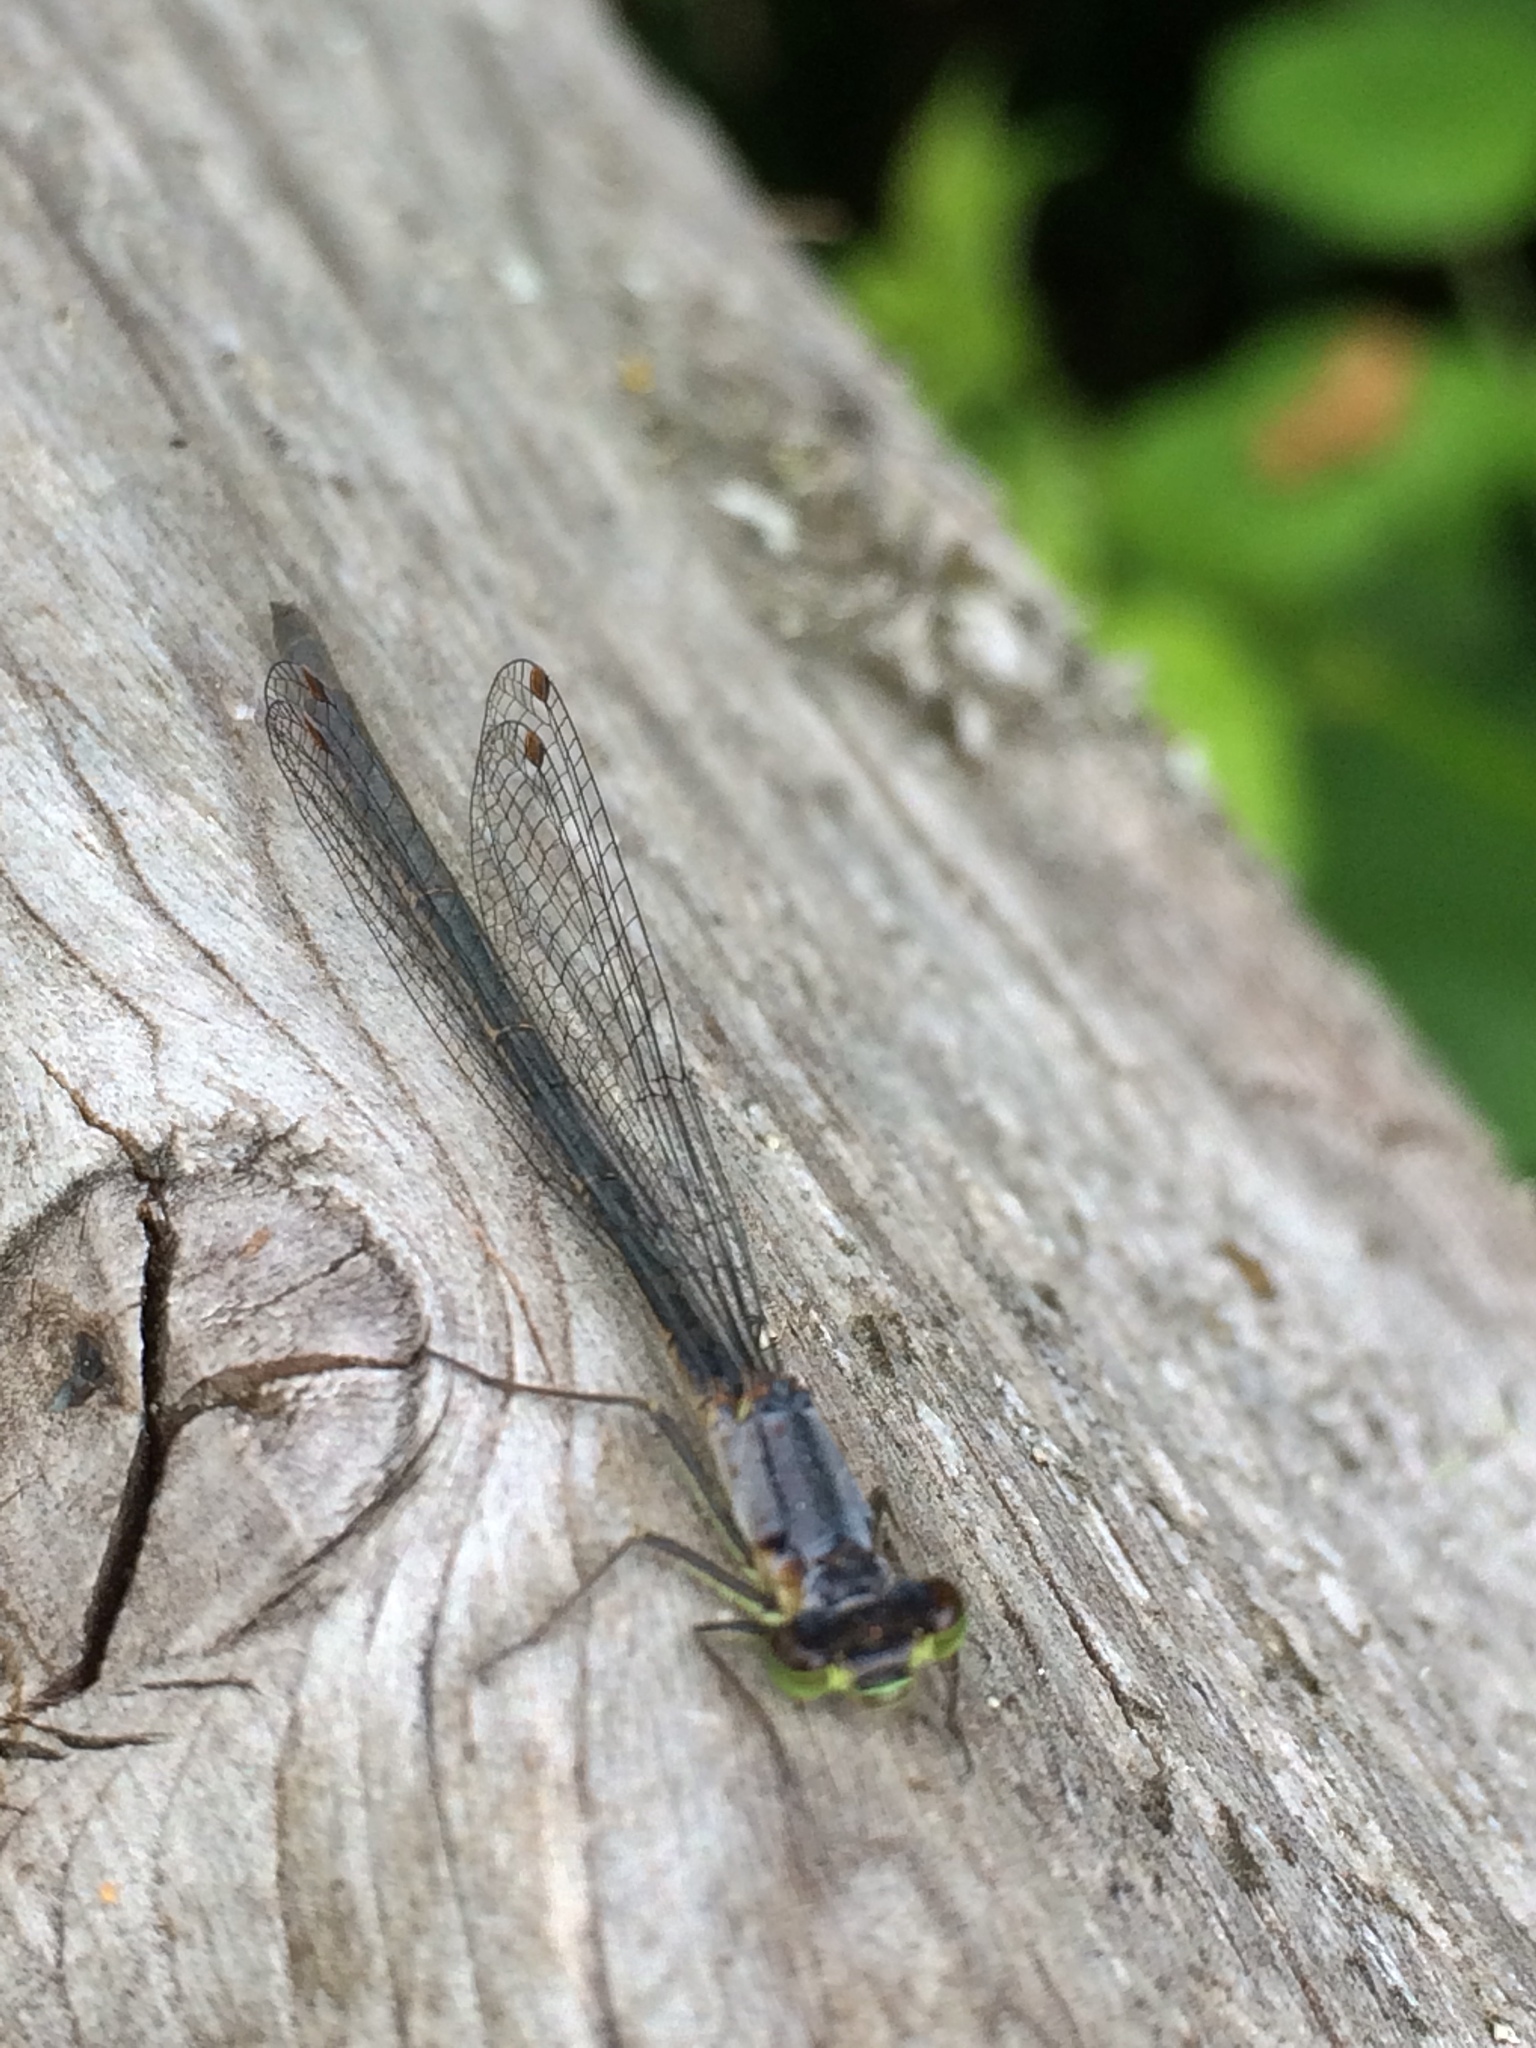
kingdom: Animalia
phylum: Arthropoda
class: Insecta
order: Odonata
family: Coenagrionidae
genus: Ischnura
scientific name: Ischnura cervula
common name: Pacific forktail
